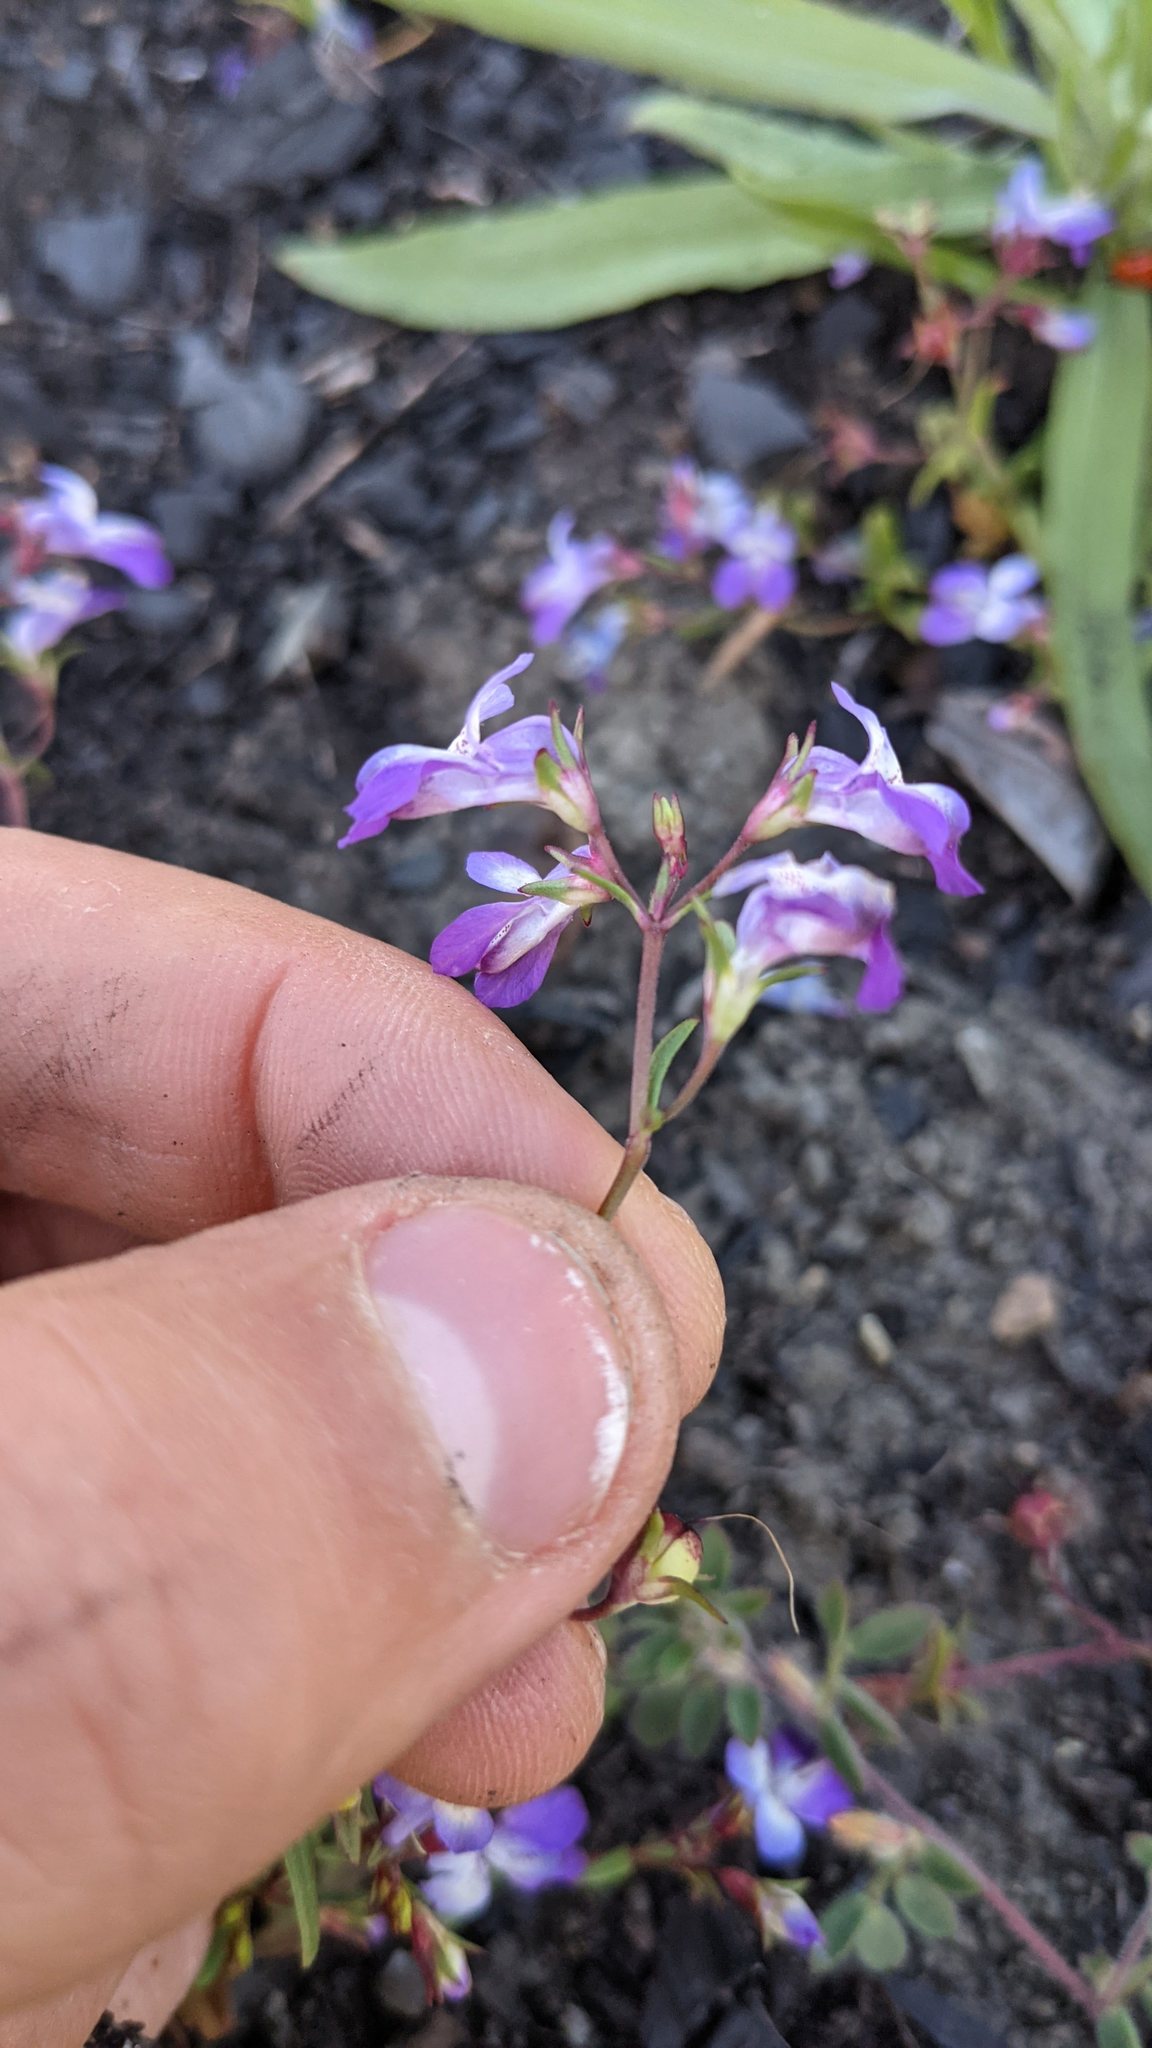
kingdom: Plantae
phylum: Tracheophyta
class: Magnoliopsida
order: Lamiales
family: Plantaginaceae
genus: Collinsia
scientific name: Collinsia sparsiflora
